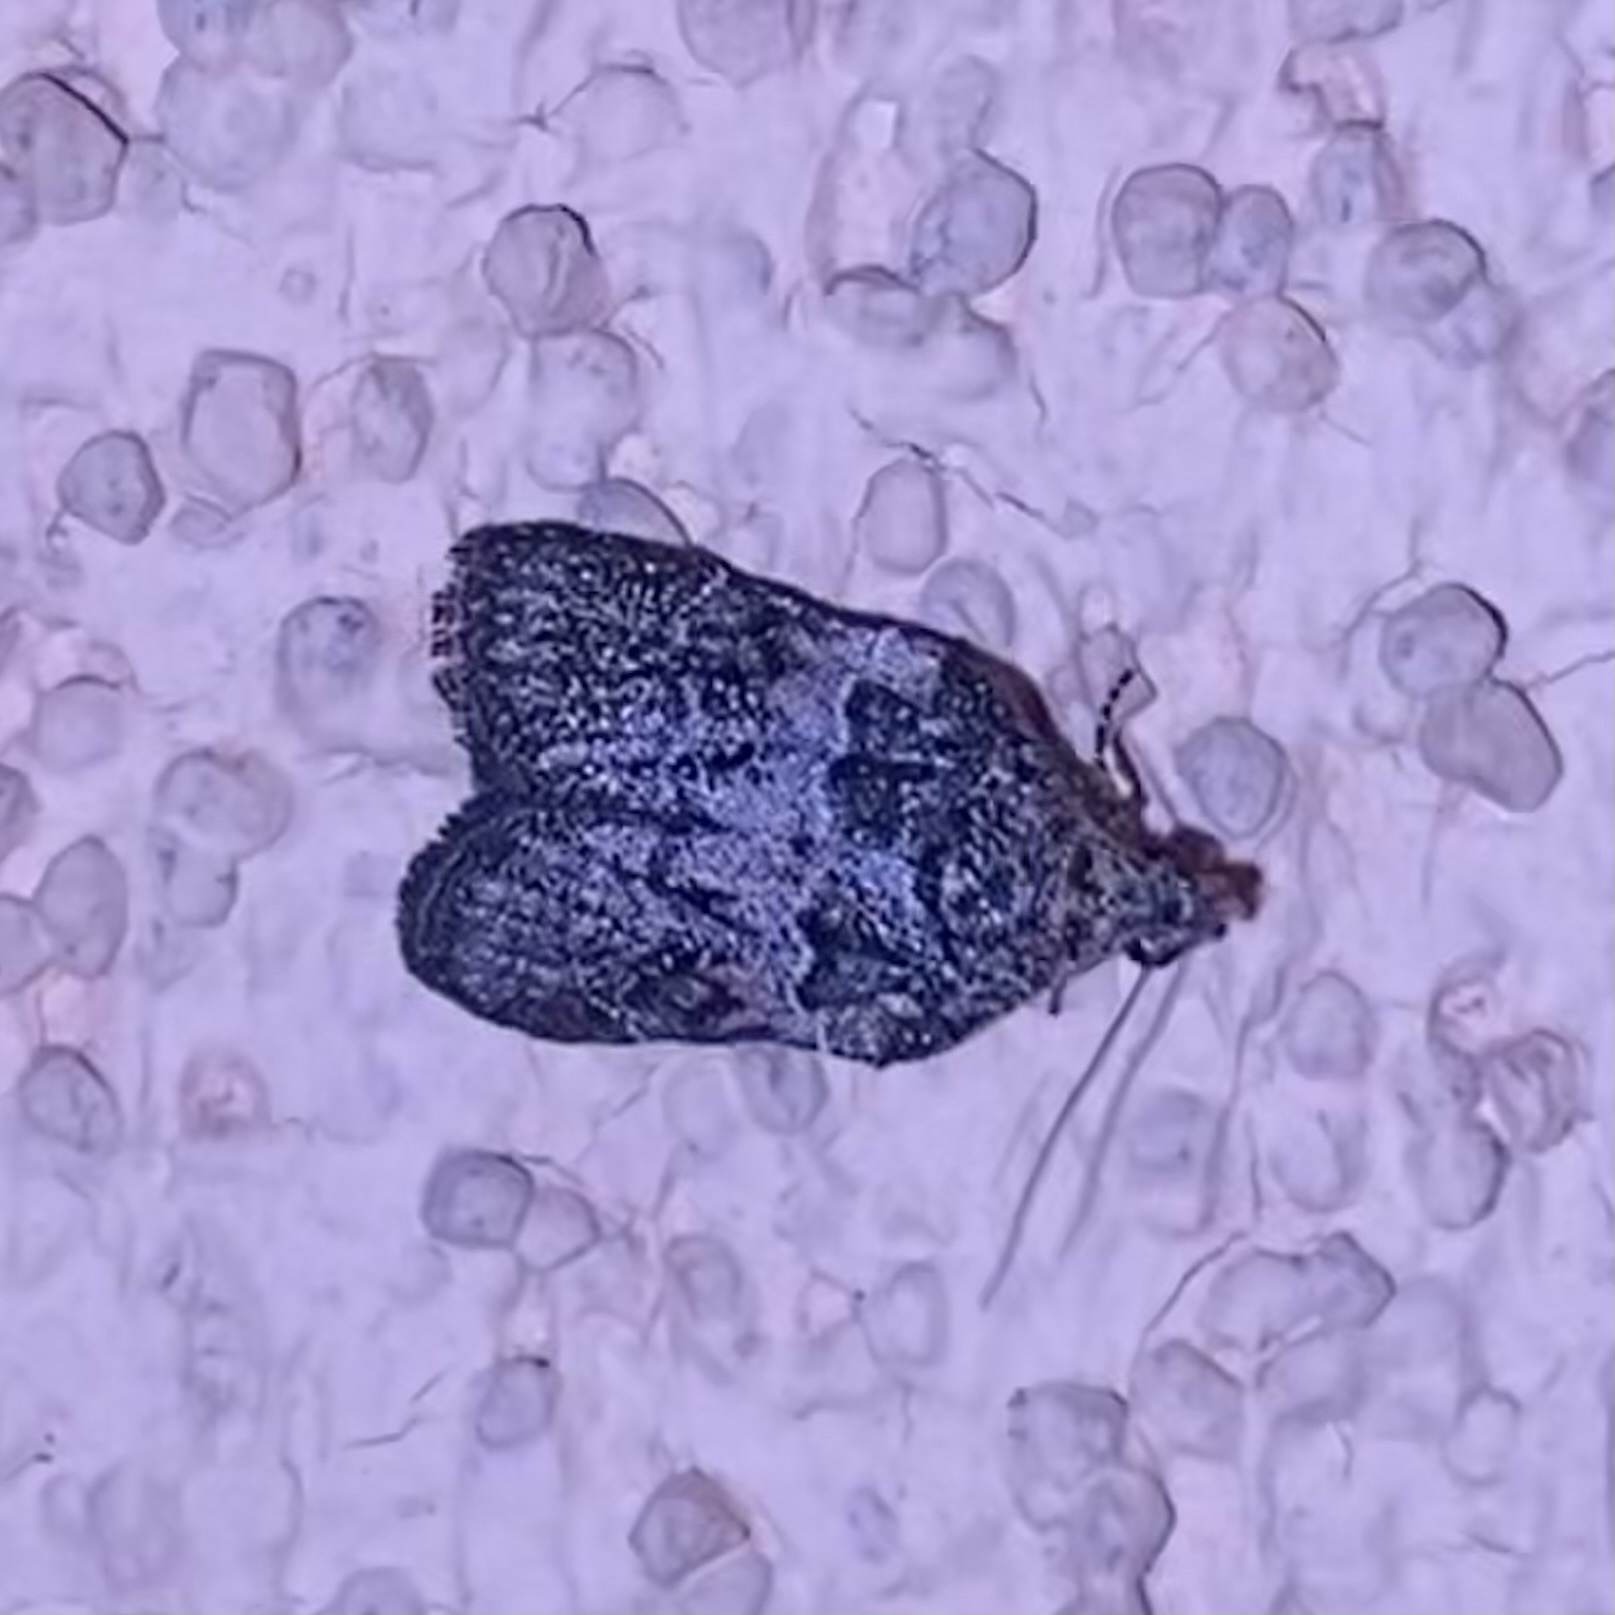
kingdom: Animalia
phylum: Arthropoda
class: Insecta
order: Lepidoptera
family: Pyralidae
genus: Satole
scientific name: Satole ligniperdalis
